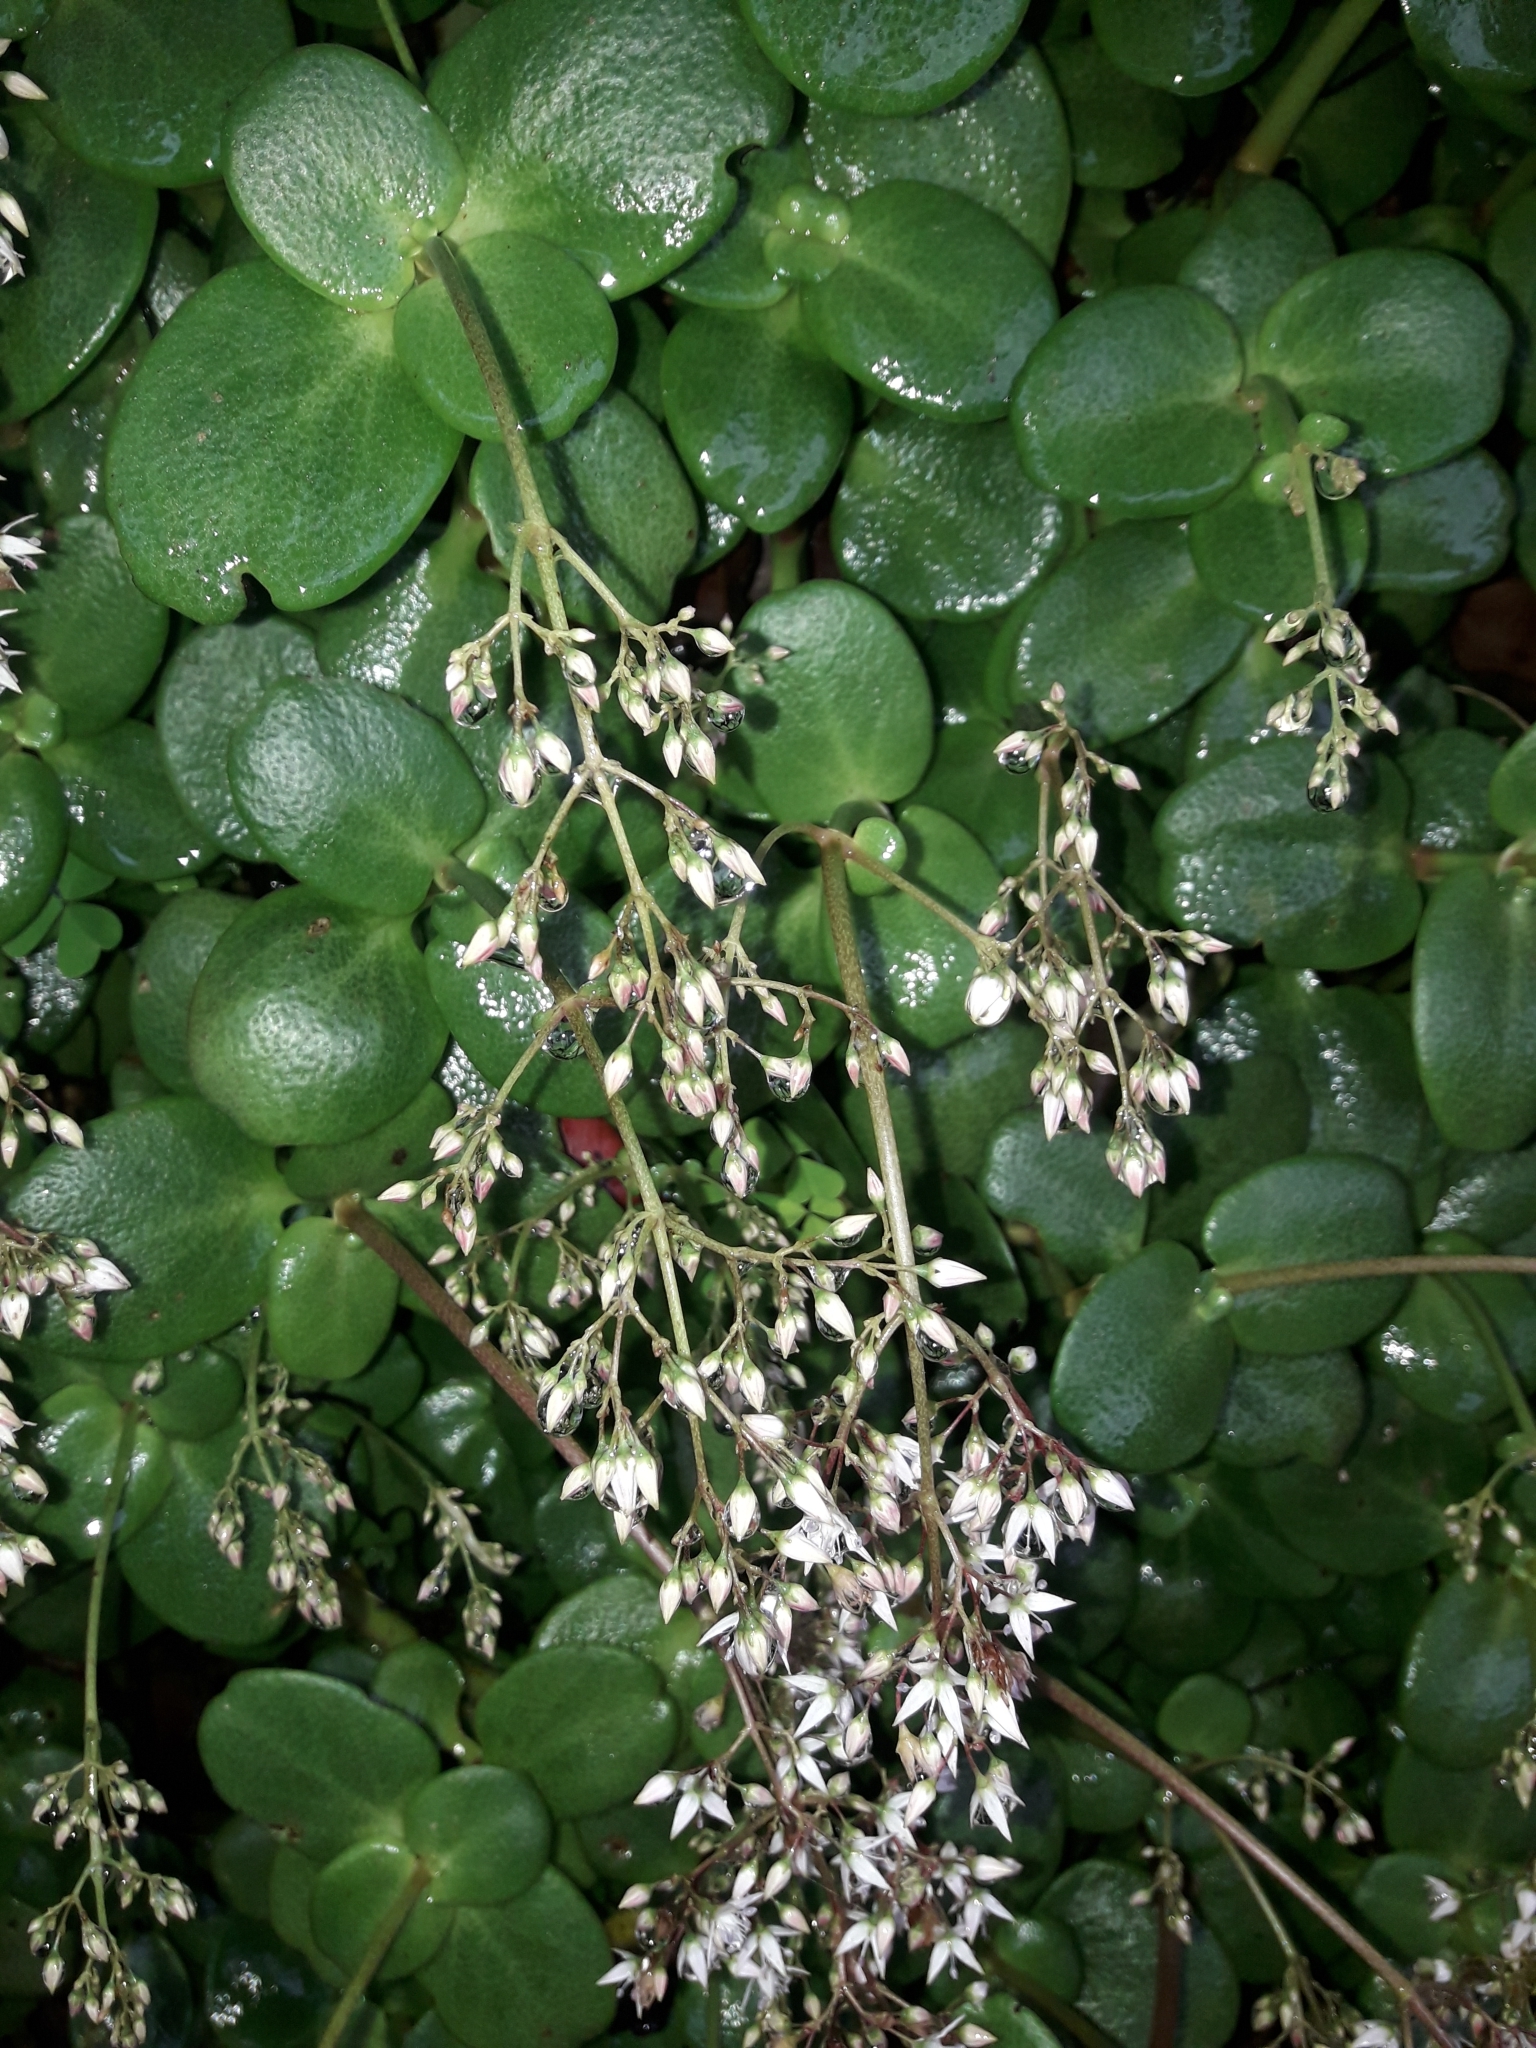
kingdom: Plantae
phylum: Tracheophyta
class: Magnoliopsida
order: Saxifragales
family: Crassulaceae
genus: Crassula
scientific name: Crassula multicava
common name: Cape province pygmyweed
